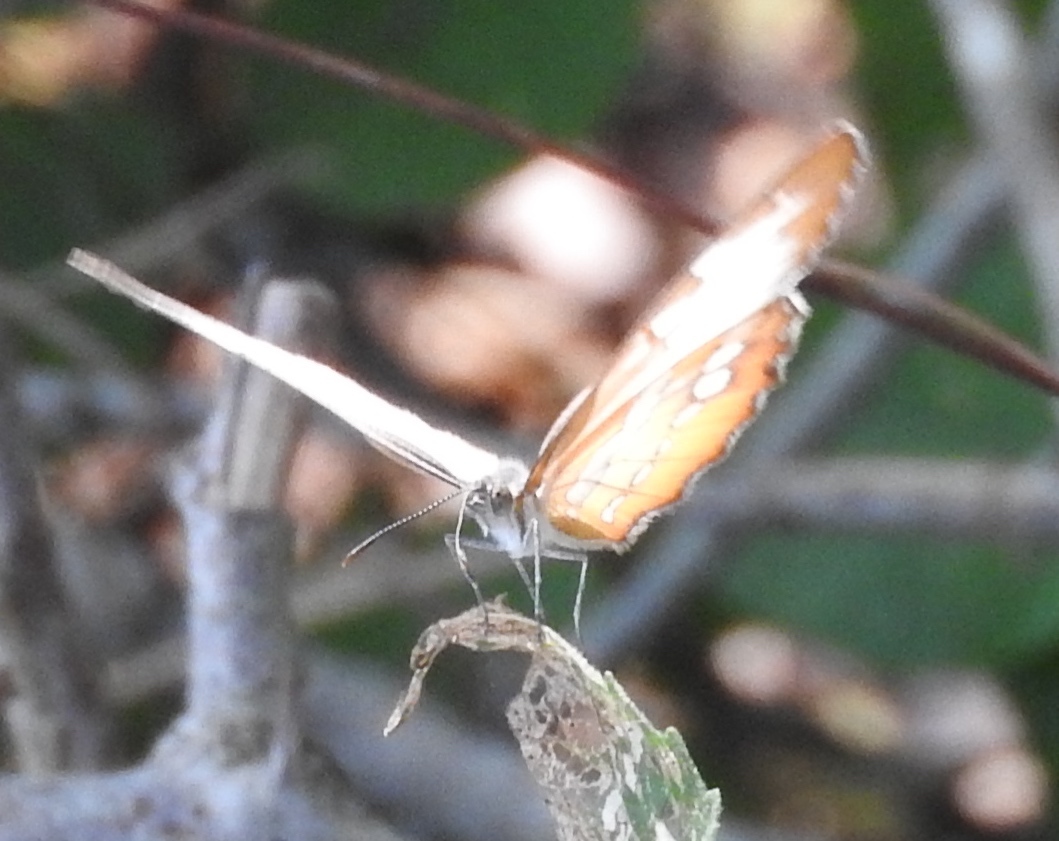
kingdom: Animalia
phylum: Arthropoda
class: Insecta
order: Lepidoptera
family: Nymphalidae
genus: Mestra
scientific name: Mestra amymone
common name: Common mestra
